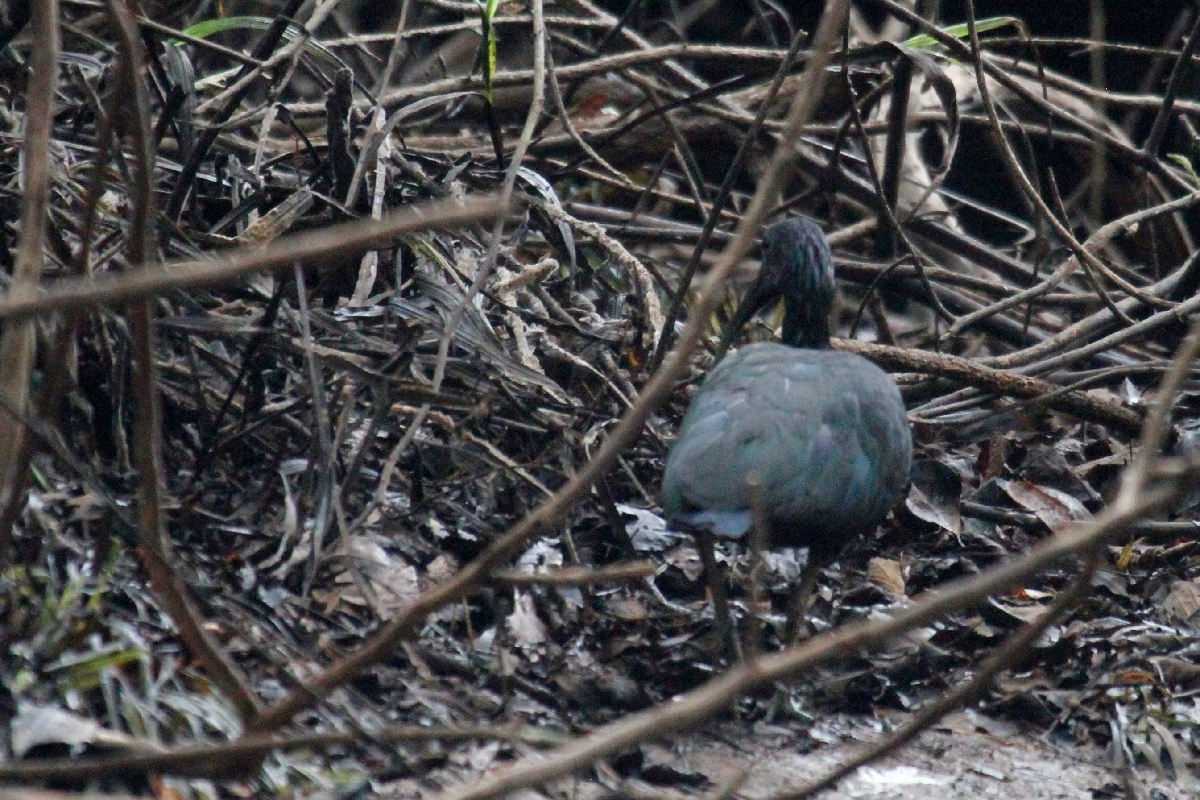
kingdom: Animalia
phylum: Chordata
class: Aves
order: Pelecaniformes
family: Threskiornithidae
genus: Mesembrinibis
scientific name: Mesembrinibis cayennensis
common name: Green ibis
